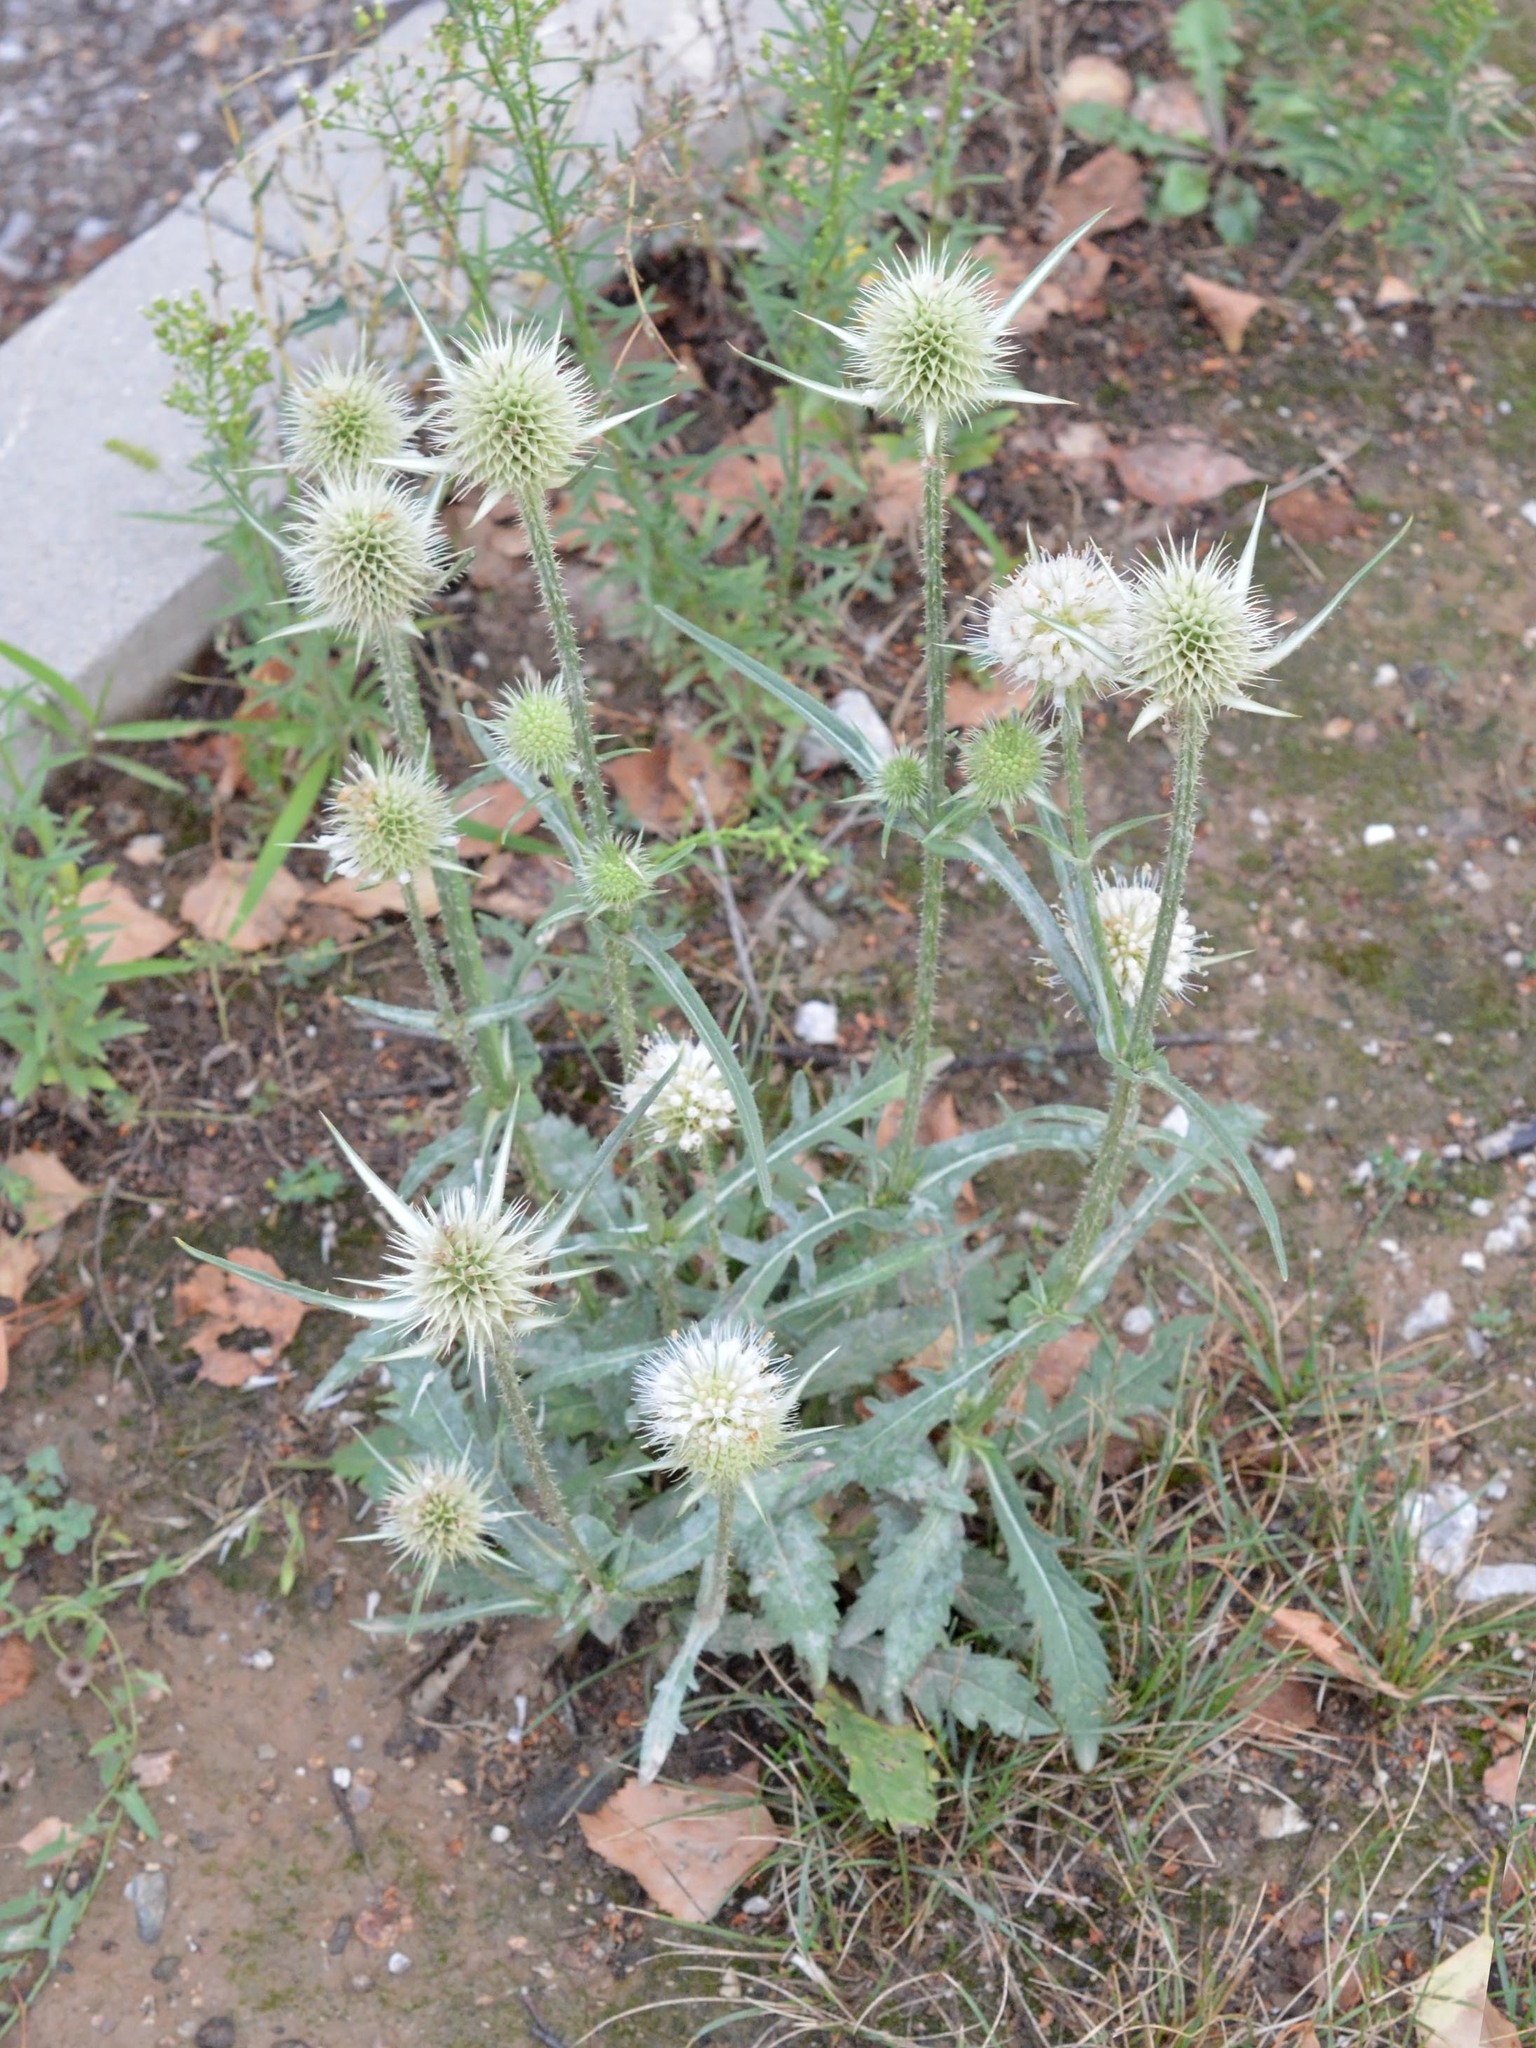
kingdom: Plantae
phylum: Tracheophyta
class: Magnoliopsida
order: Dipsacales
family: Caprifoliaceae
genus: Dipsacus
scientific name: Dipsacus laciniatus
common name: Cut-leaved teasel
